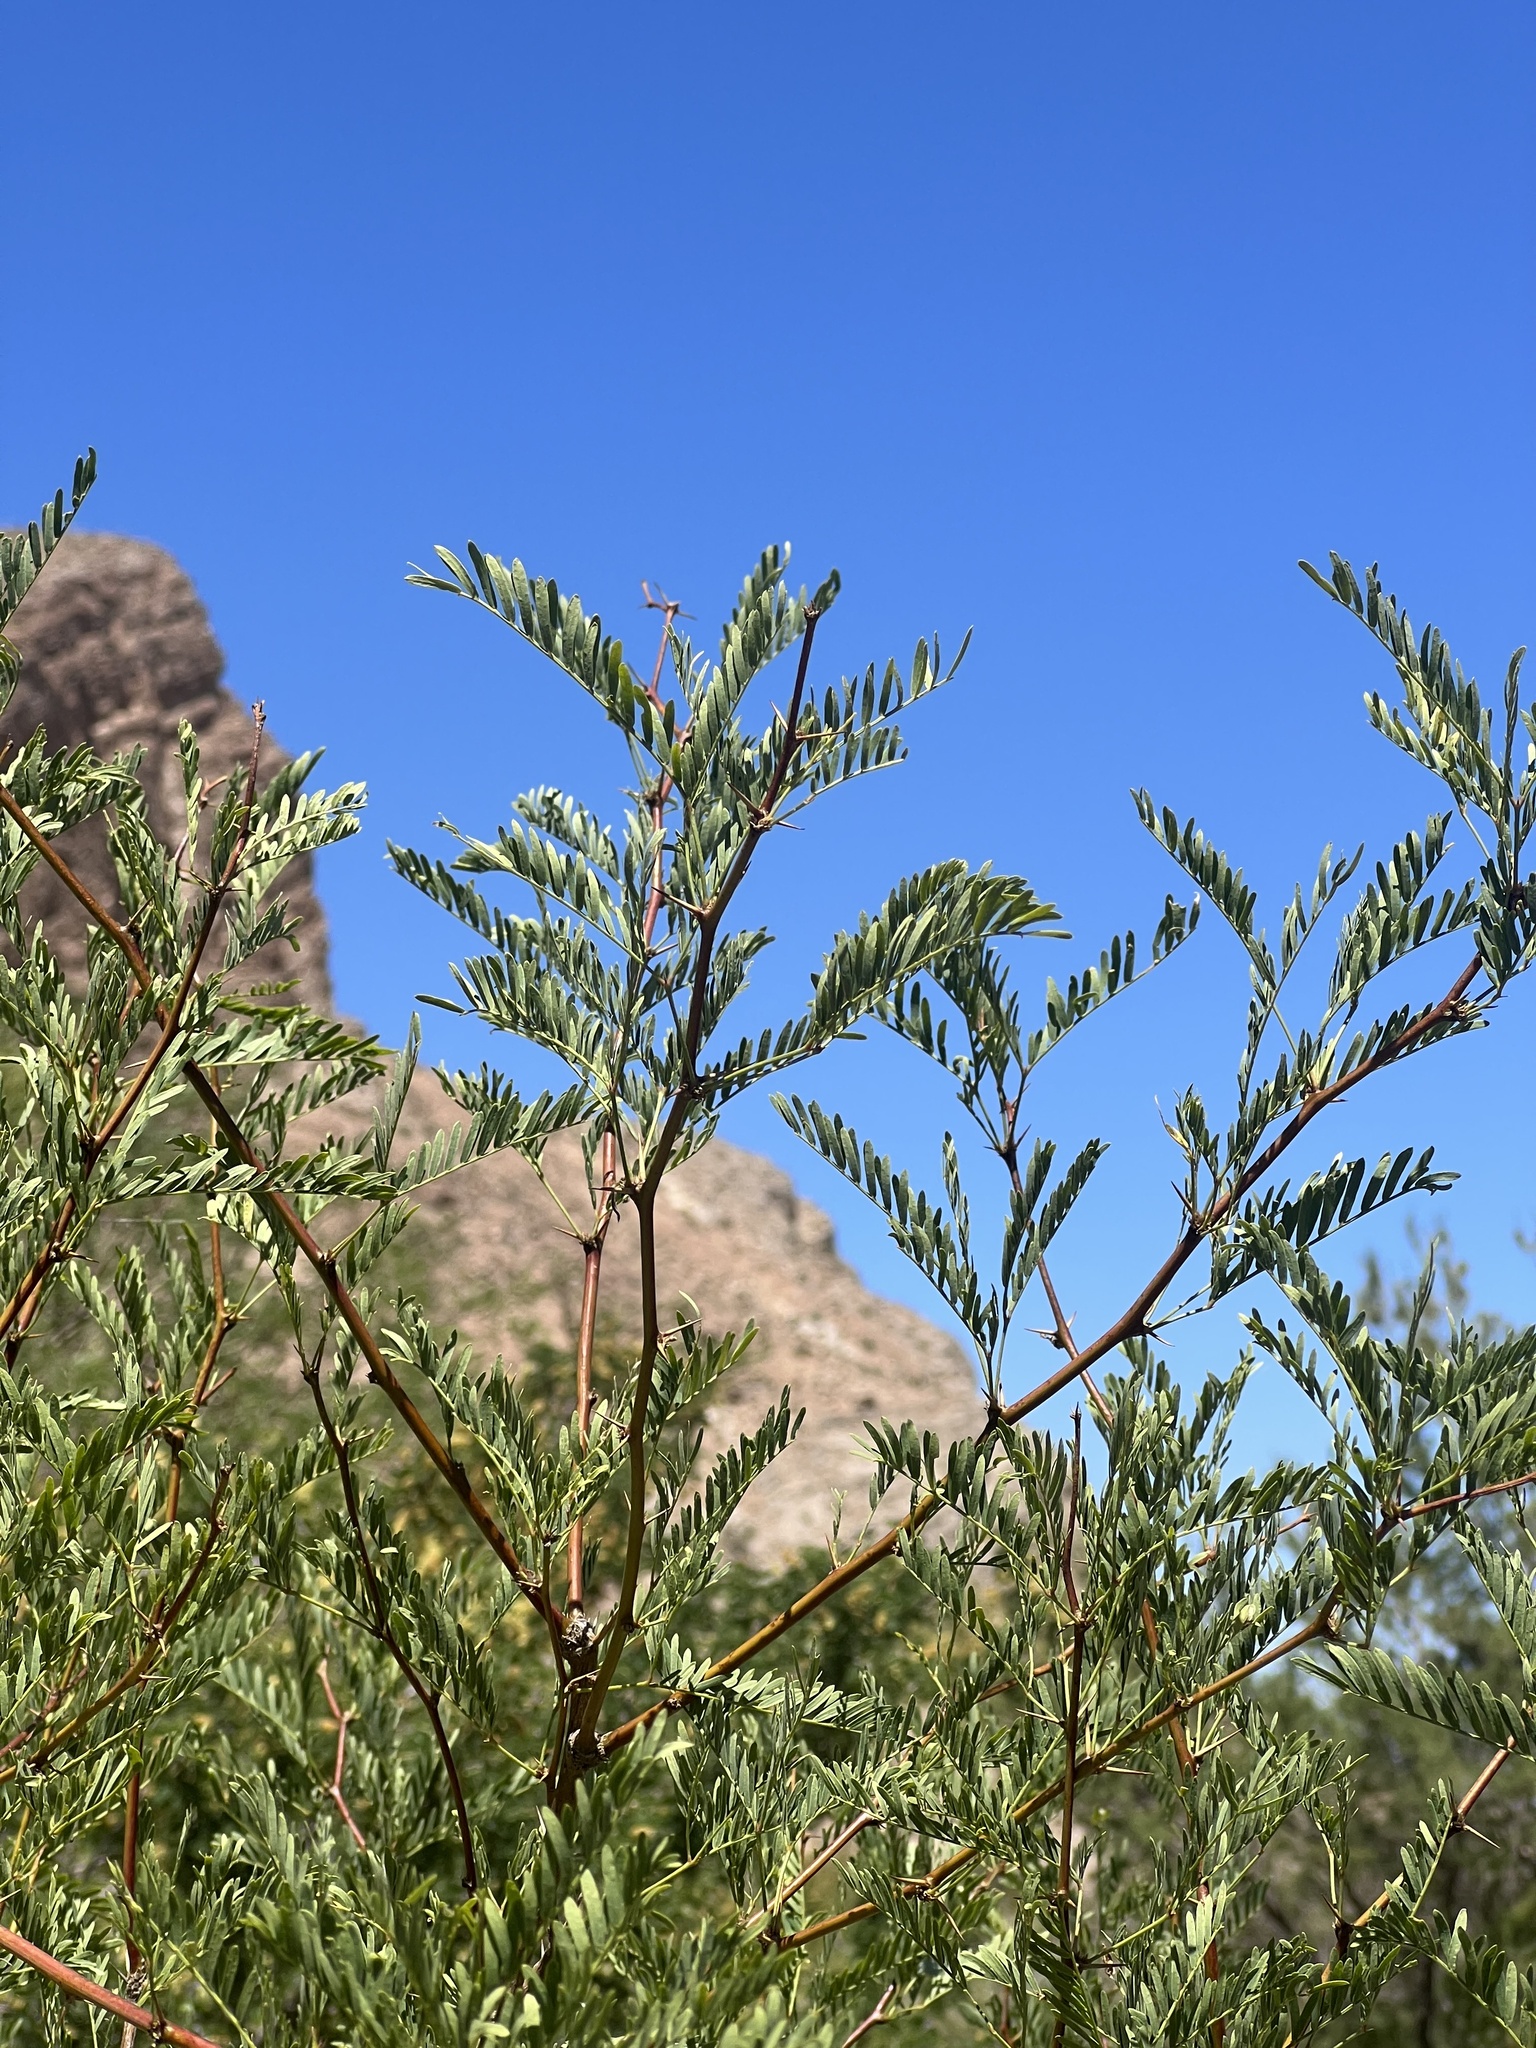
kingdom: Plantae
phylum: Tracheophyta
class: Magnoliopsida
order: Fabales
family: Fabaceae
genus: Prosopis
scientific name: Prosopis pubescens
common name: Screw-bean
